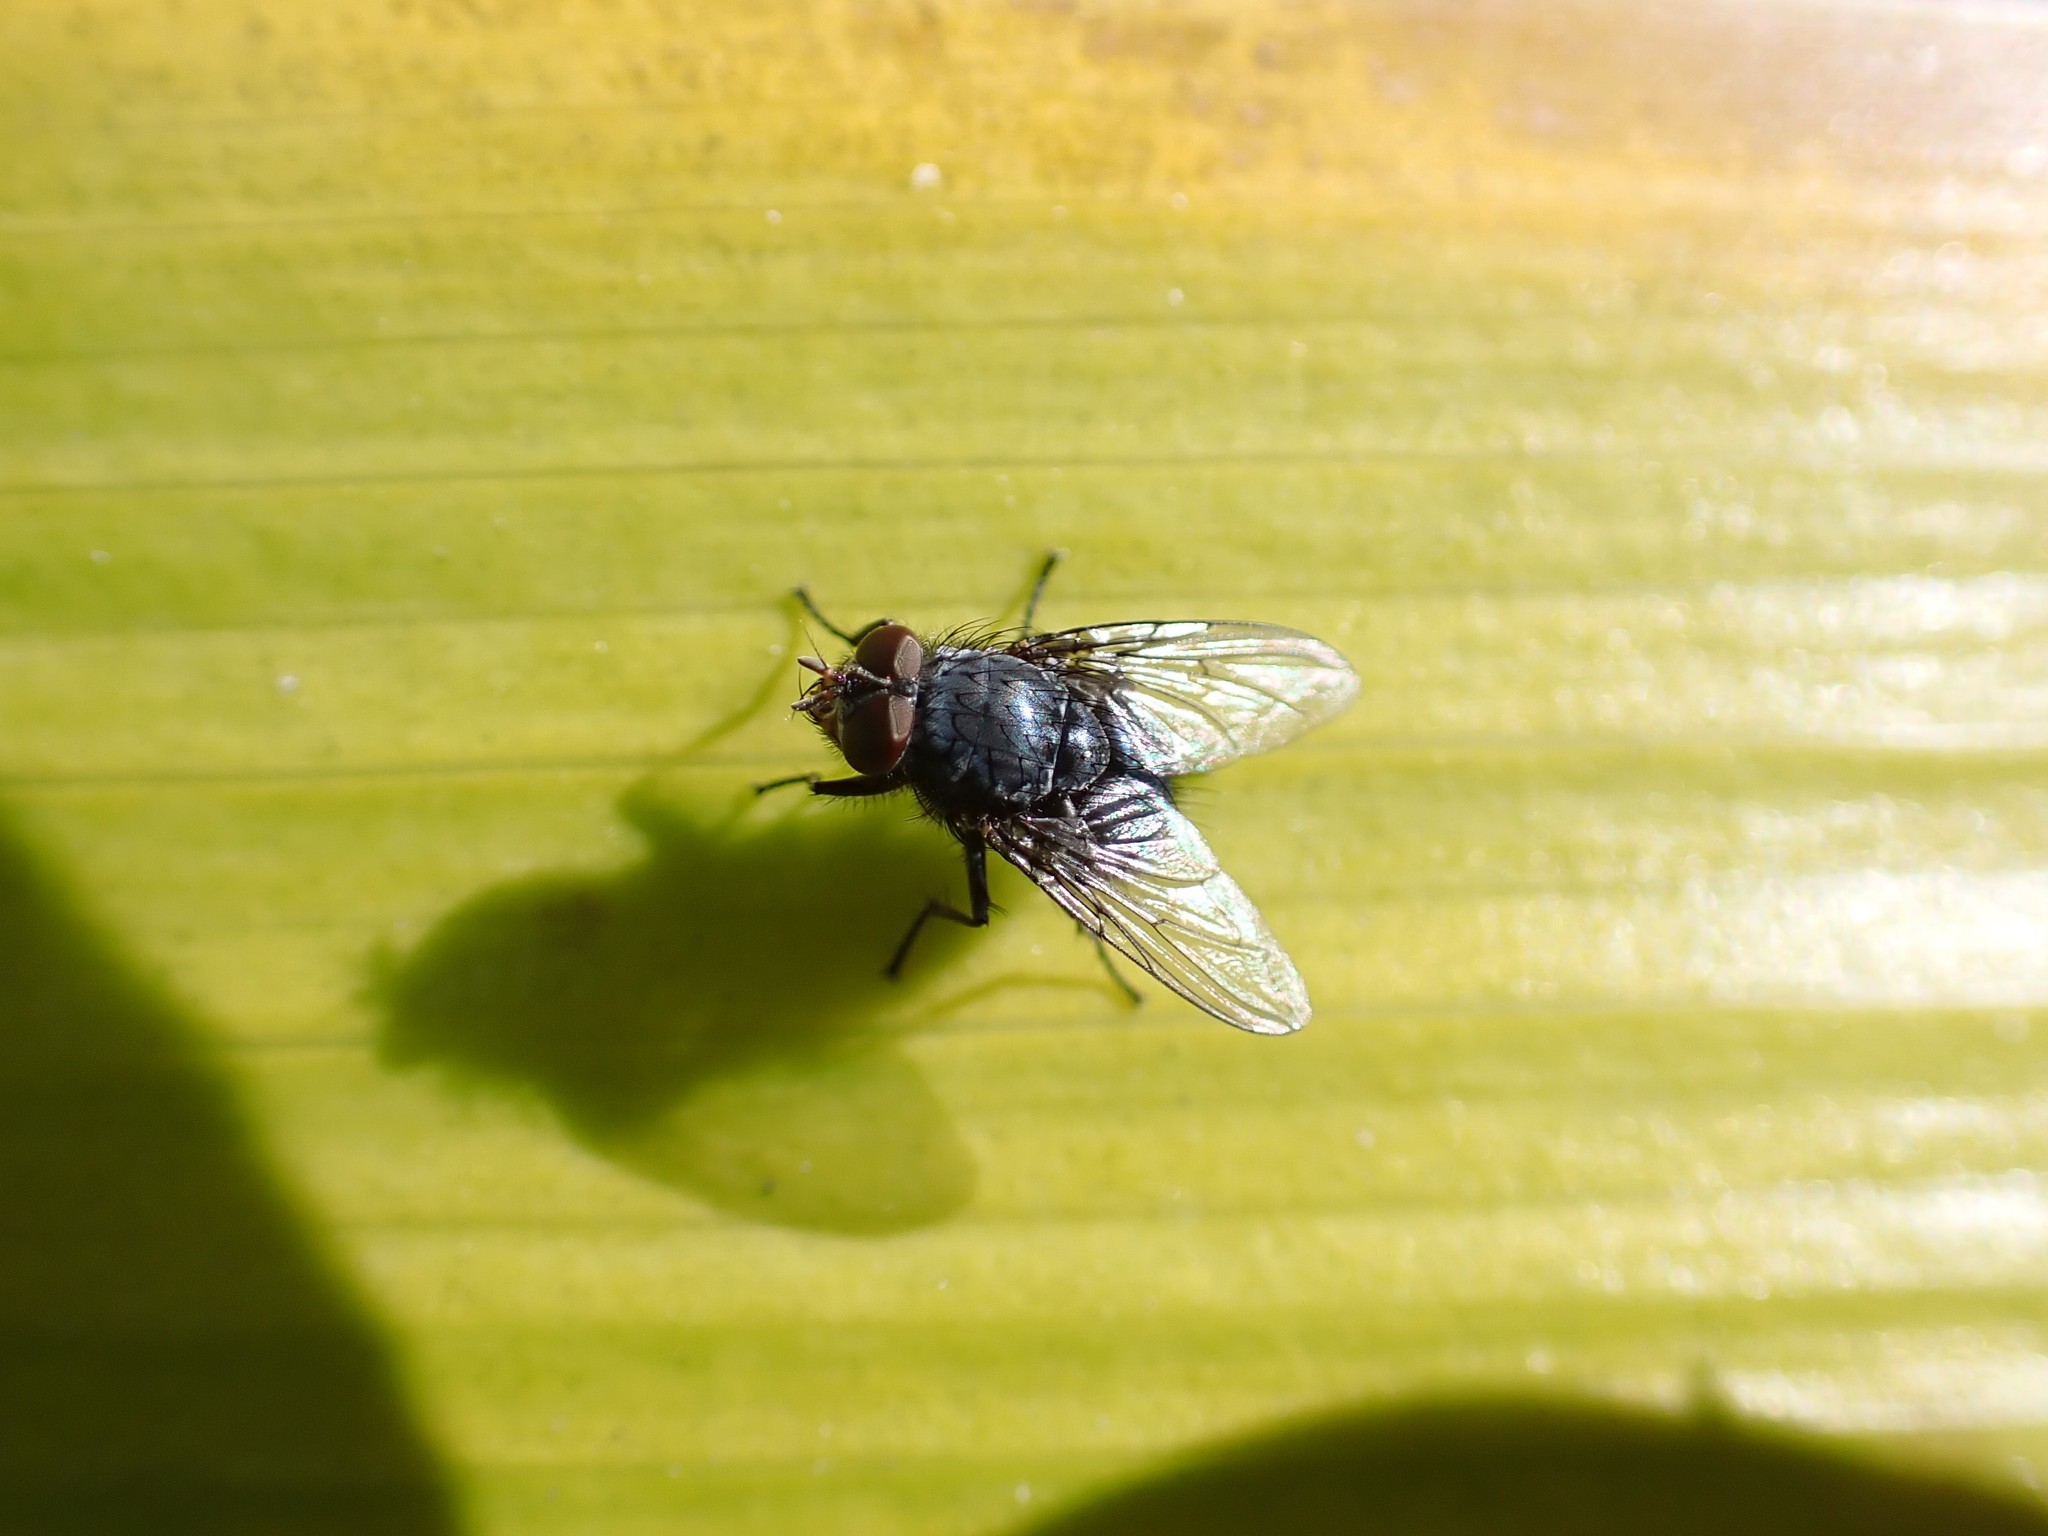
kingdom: Animalia
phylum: Arthropoda
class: Insecta
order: Diptera
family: Calliphoridae
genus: Calliphora
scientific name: Calliphora vicina
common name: Common blow flie
